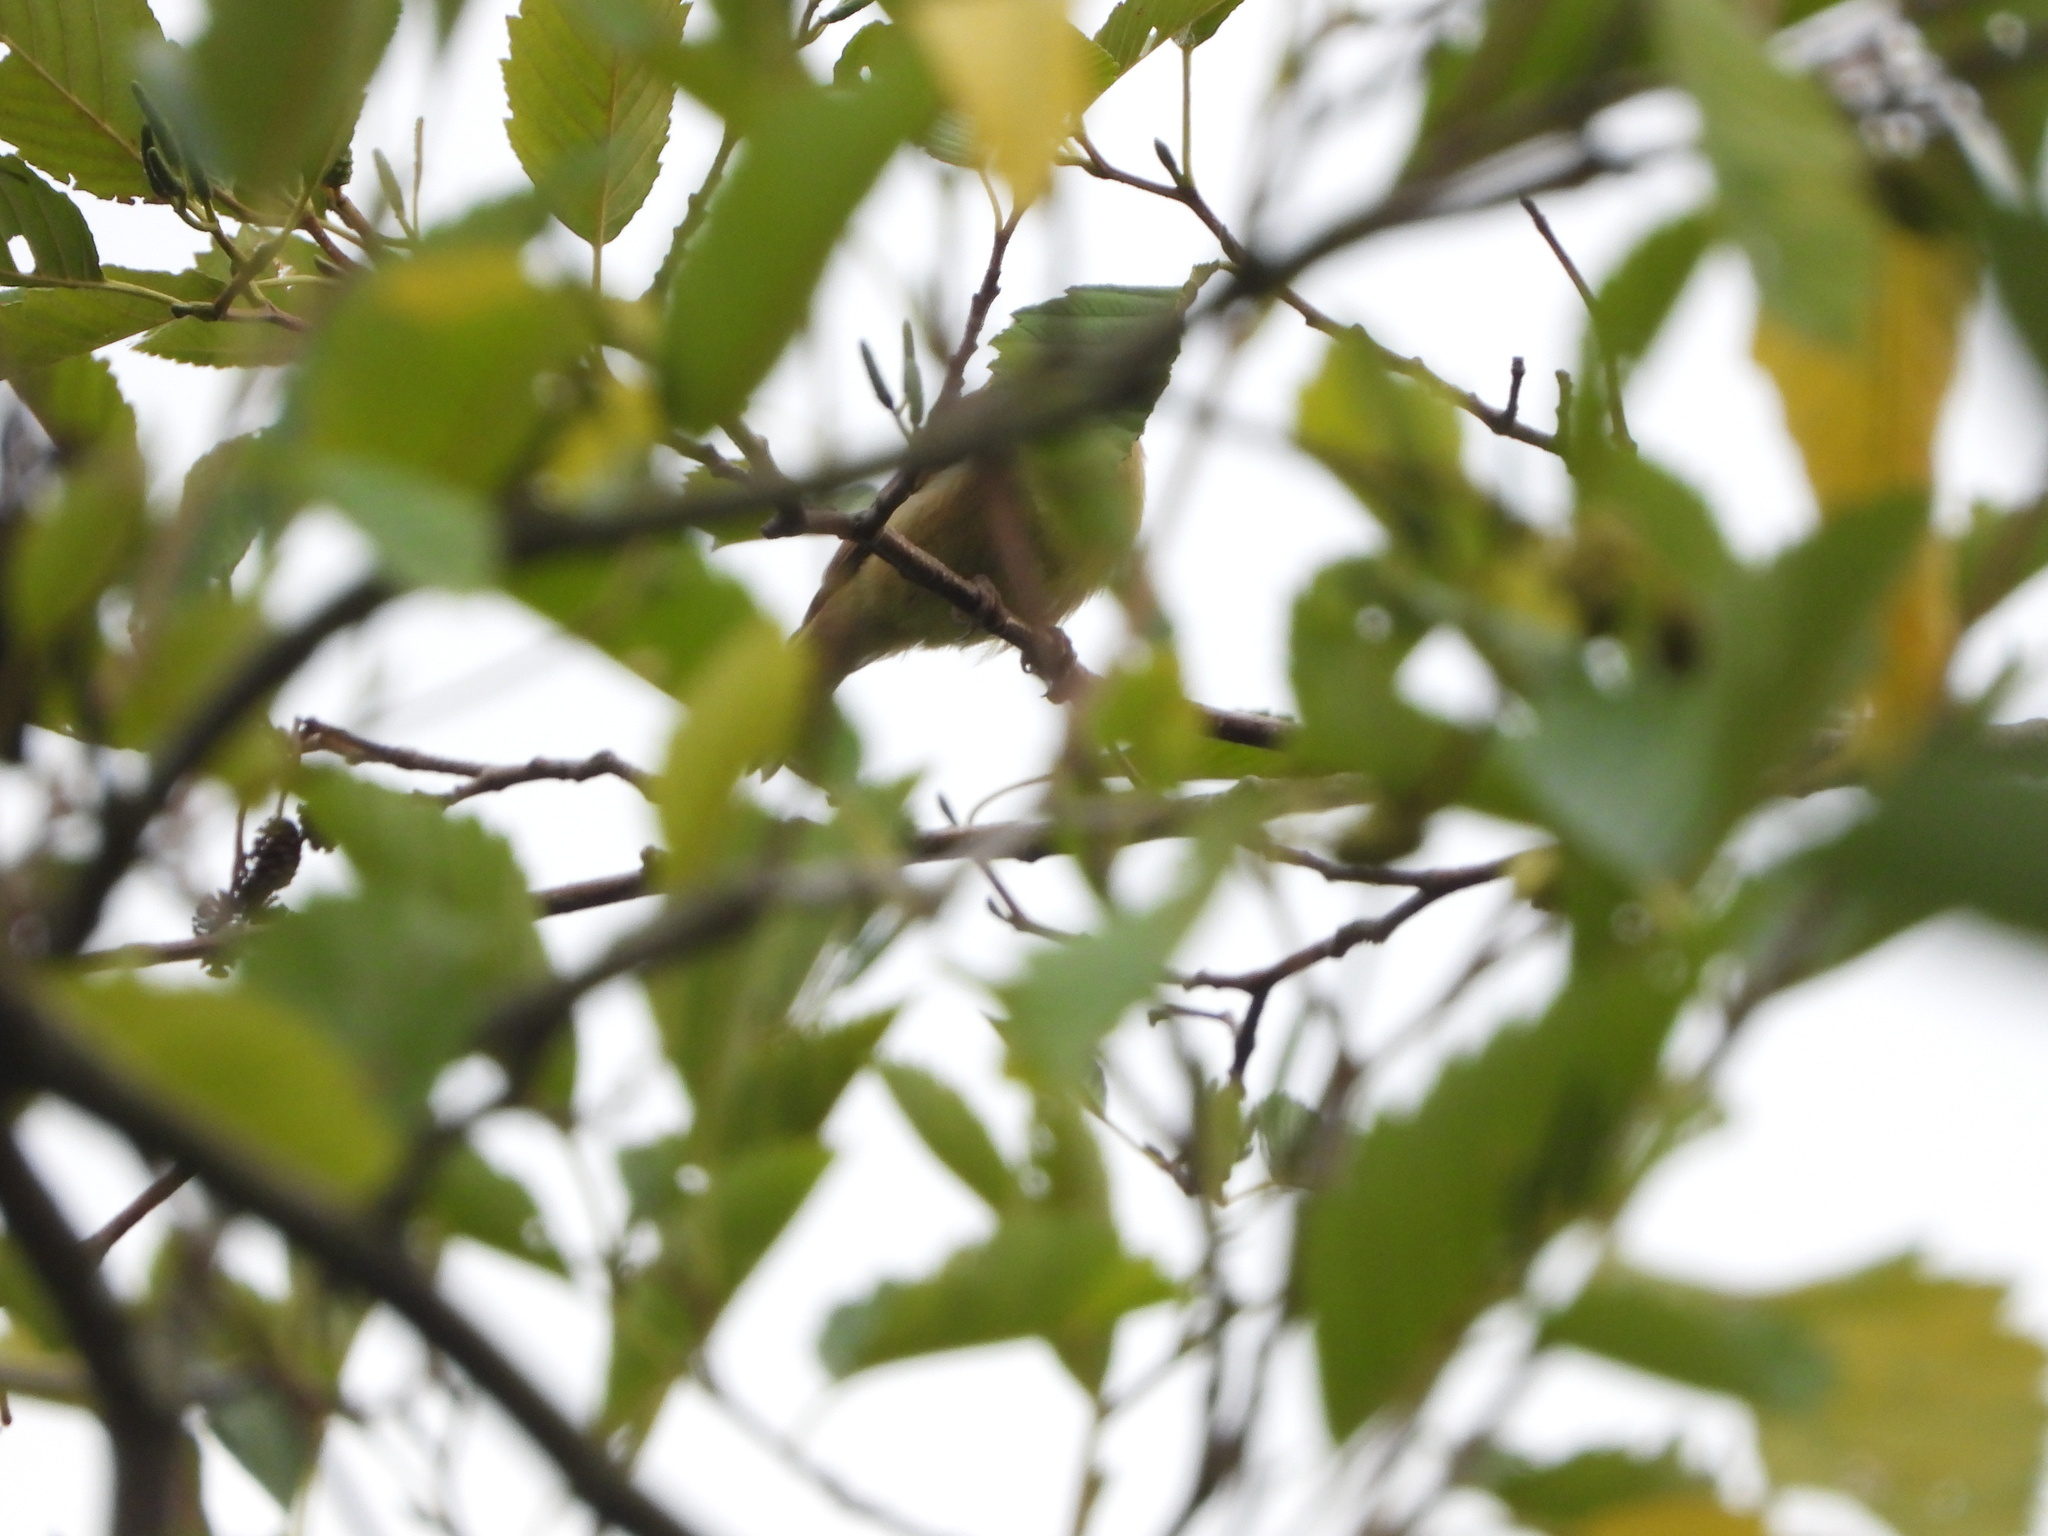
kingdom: Animalia
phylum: Chordata
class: Aves
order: Passeriformes
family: Fringillidae
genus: Spinus
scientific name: Spinus tristis
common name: American goldfinch
